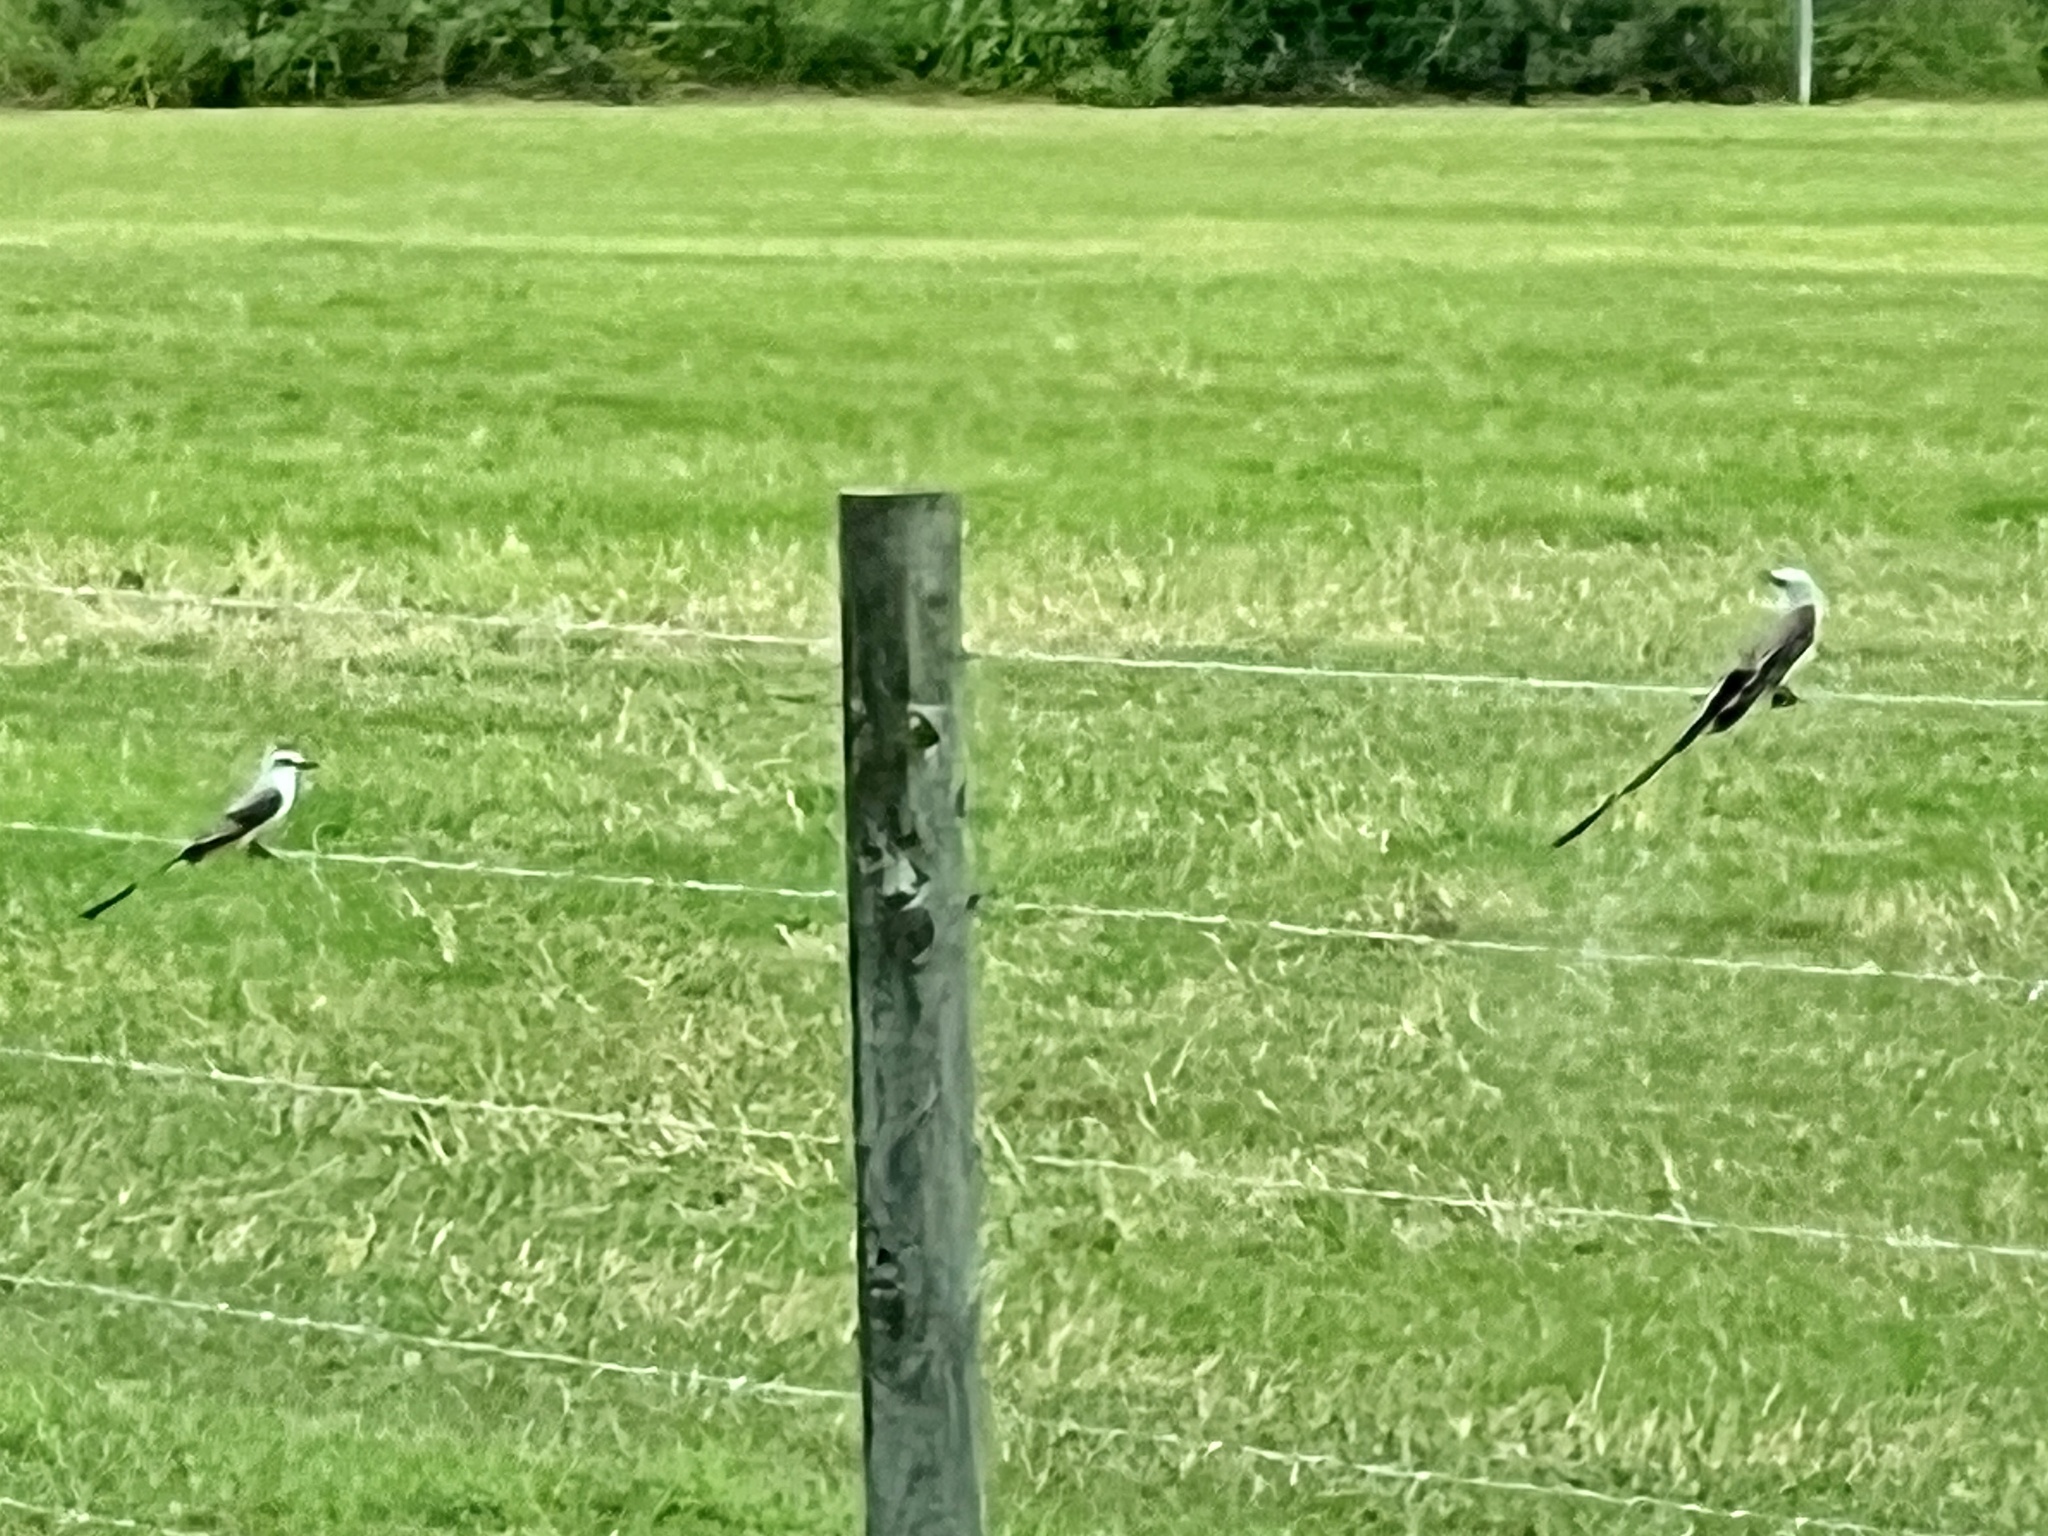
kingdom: Animalia
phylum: Chordata
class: Aves
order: Passeriformes
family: Tyrannidae
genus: Tyrannus
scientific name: Tyrannus forficatus
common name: Scissor-tailed flycatcher
